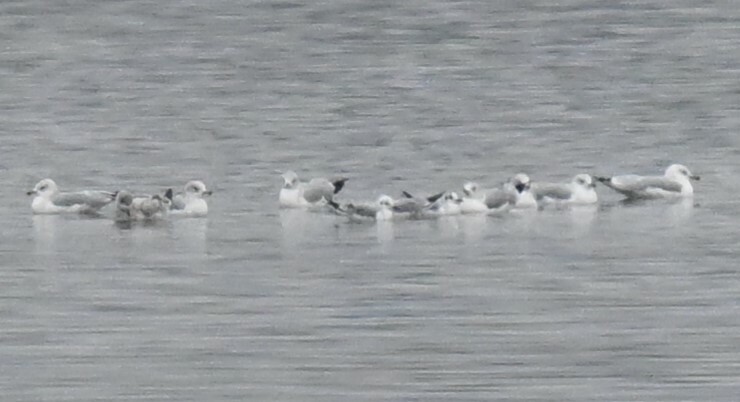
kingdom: Animalia
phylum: Chordata
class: Aves
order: Charadriiformes
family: Laridae
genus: Chroicocephalus
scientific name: Chroicocephalus philadelphia
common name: Bonaparte's gull
